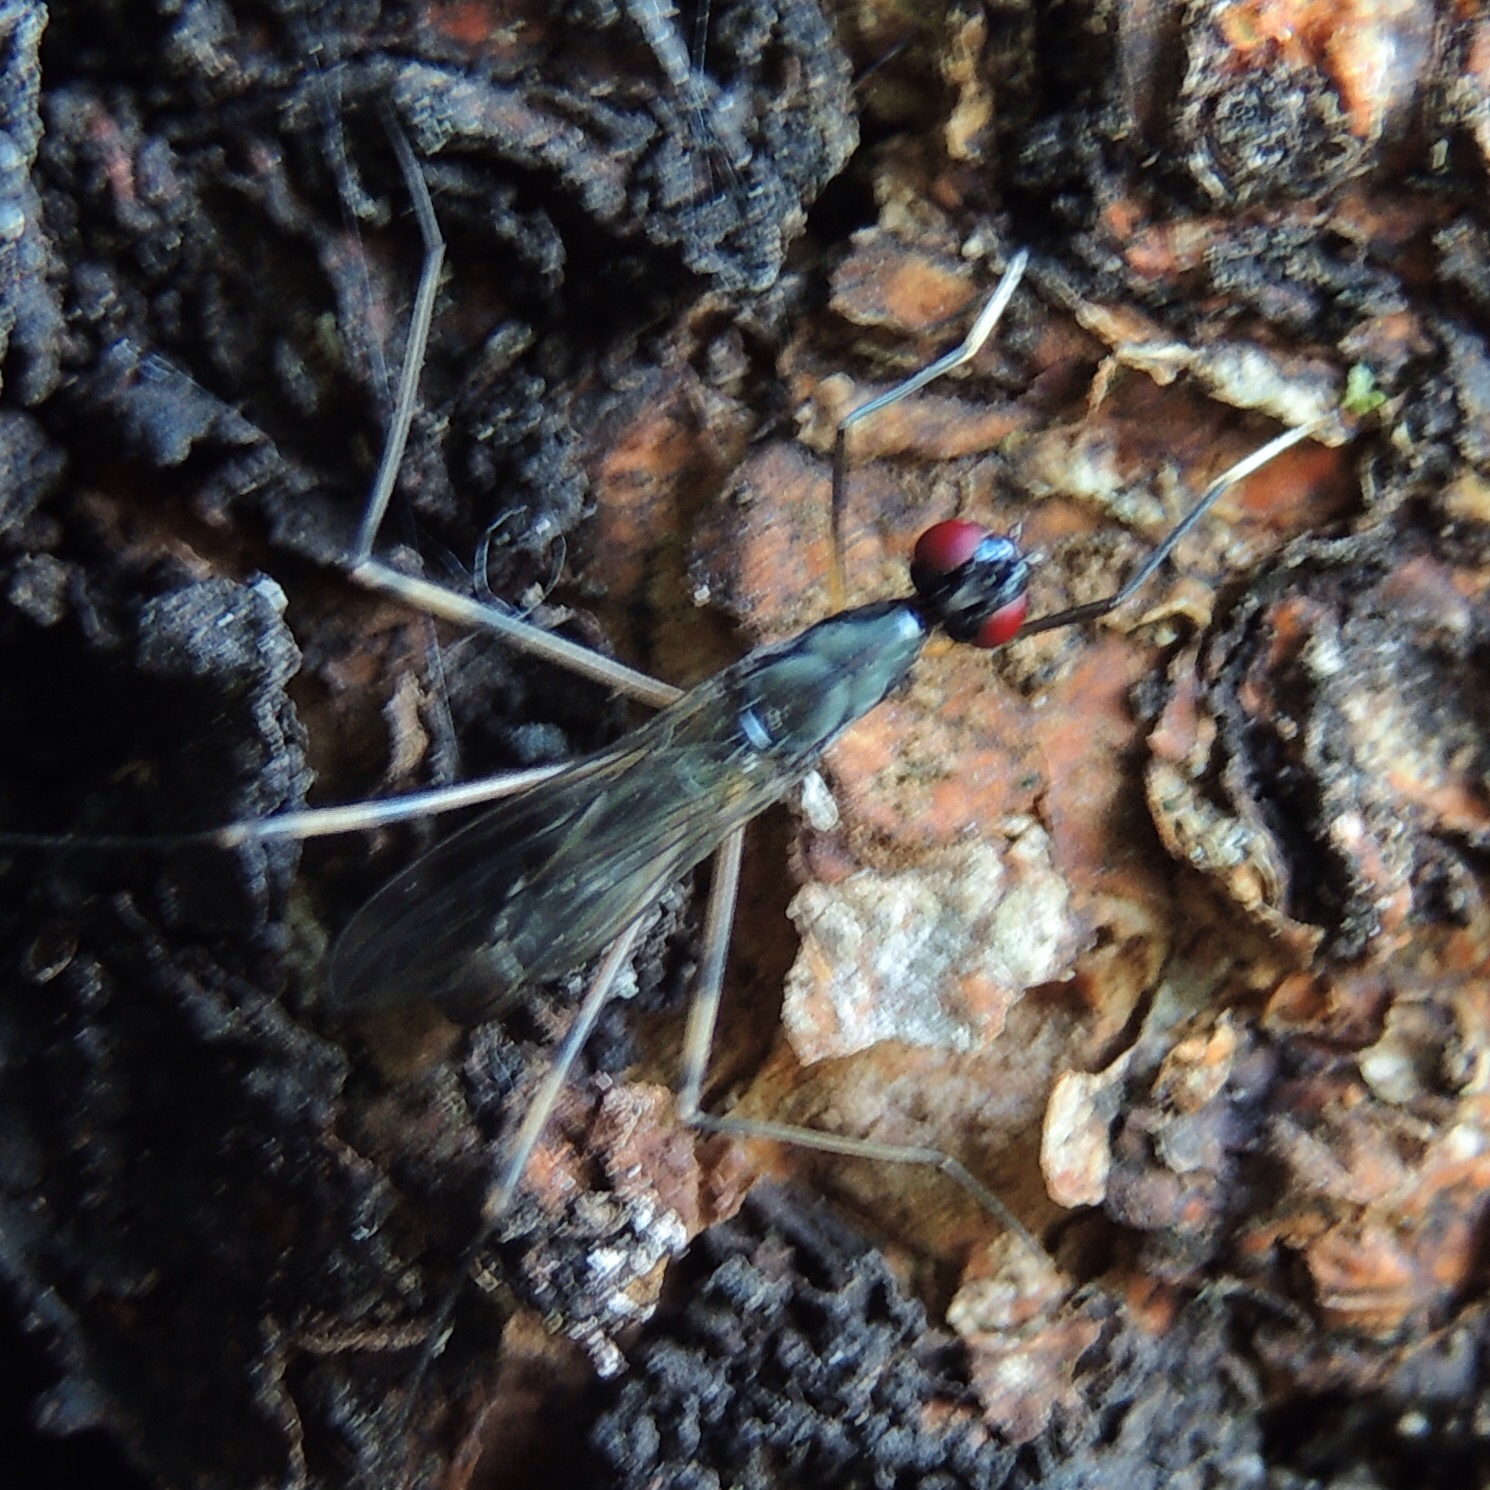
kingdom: Animalia
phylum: Arthropoda
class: Insecta
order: Diptera
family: Micropezidae
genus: Rainieria
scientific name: Rainieria antennaepes
